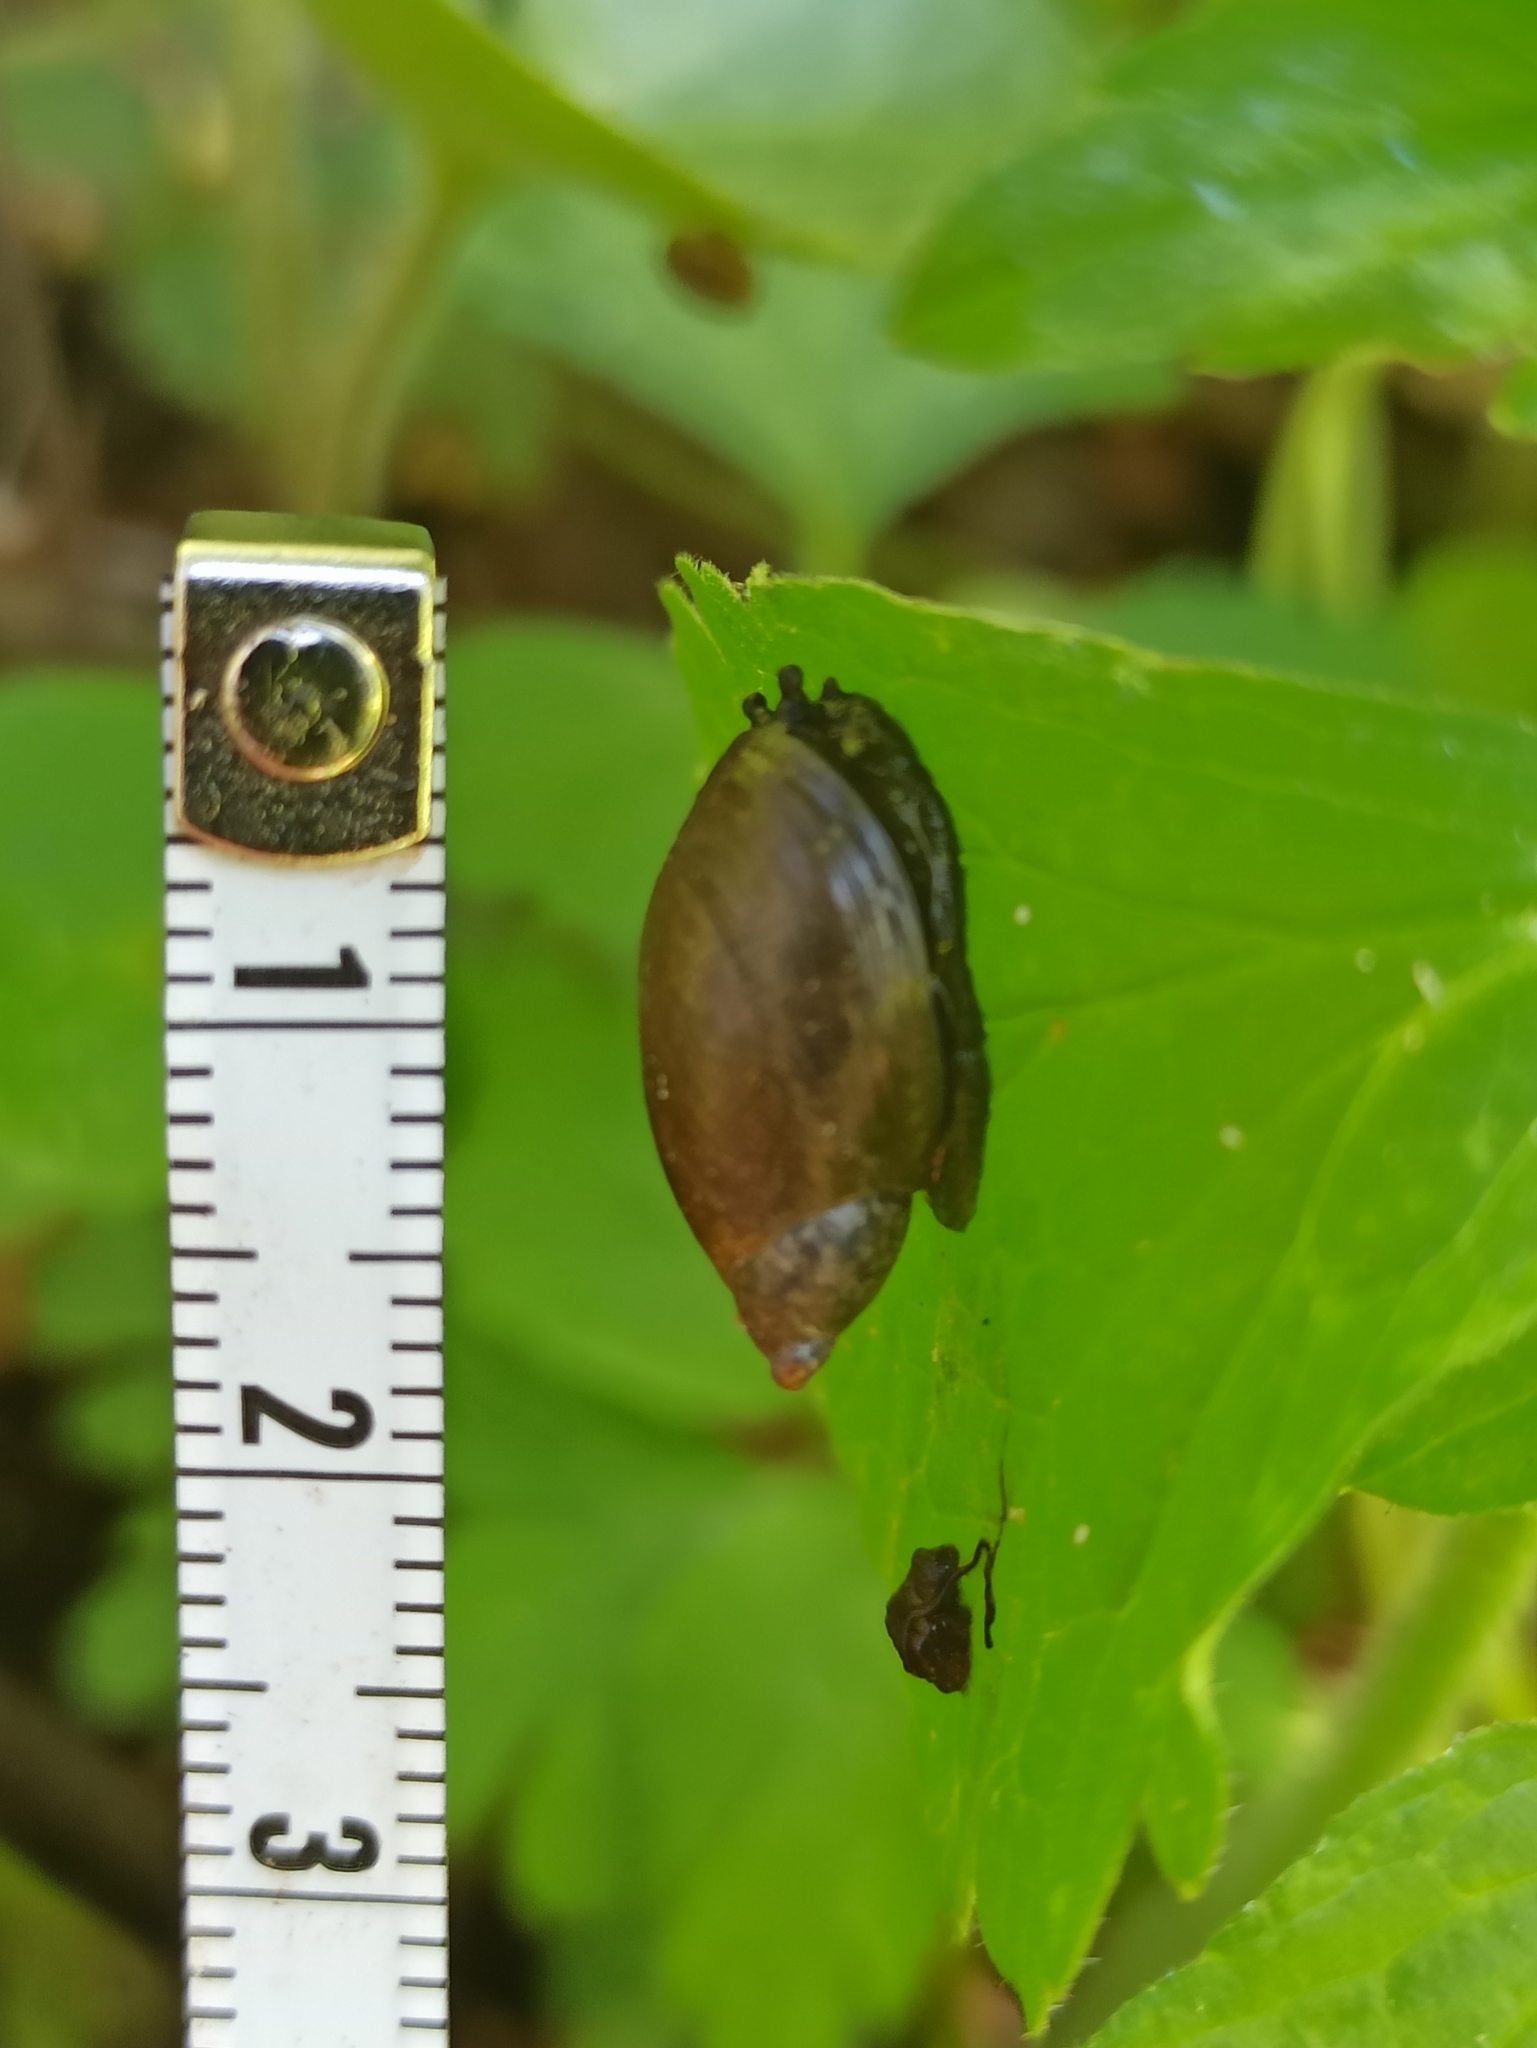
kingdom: Animalia
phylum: Mollusca
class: Gastropoda
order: Stylommatophora
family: Succineidae
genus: Succinea
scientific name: Succinea putris
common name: European ambersnail
